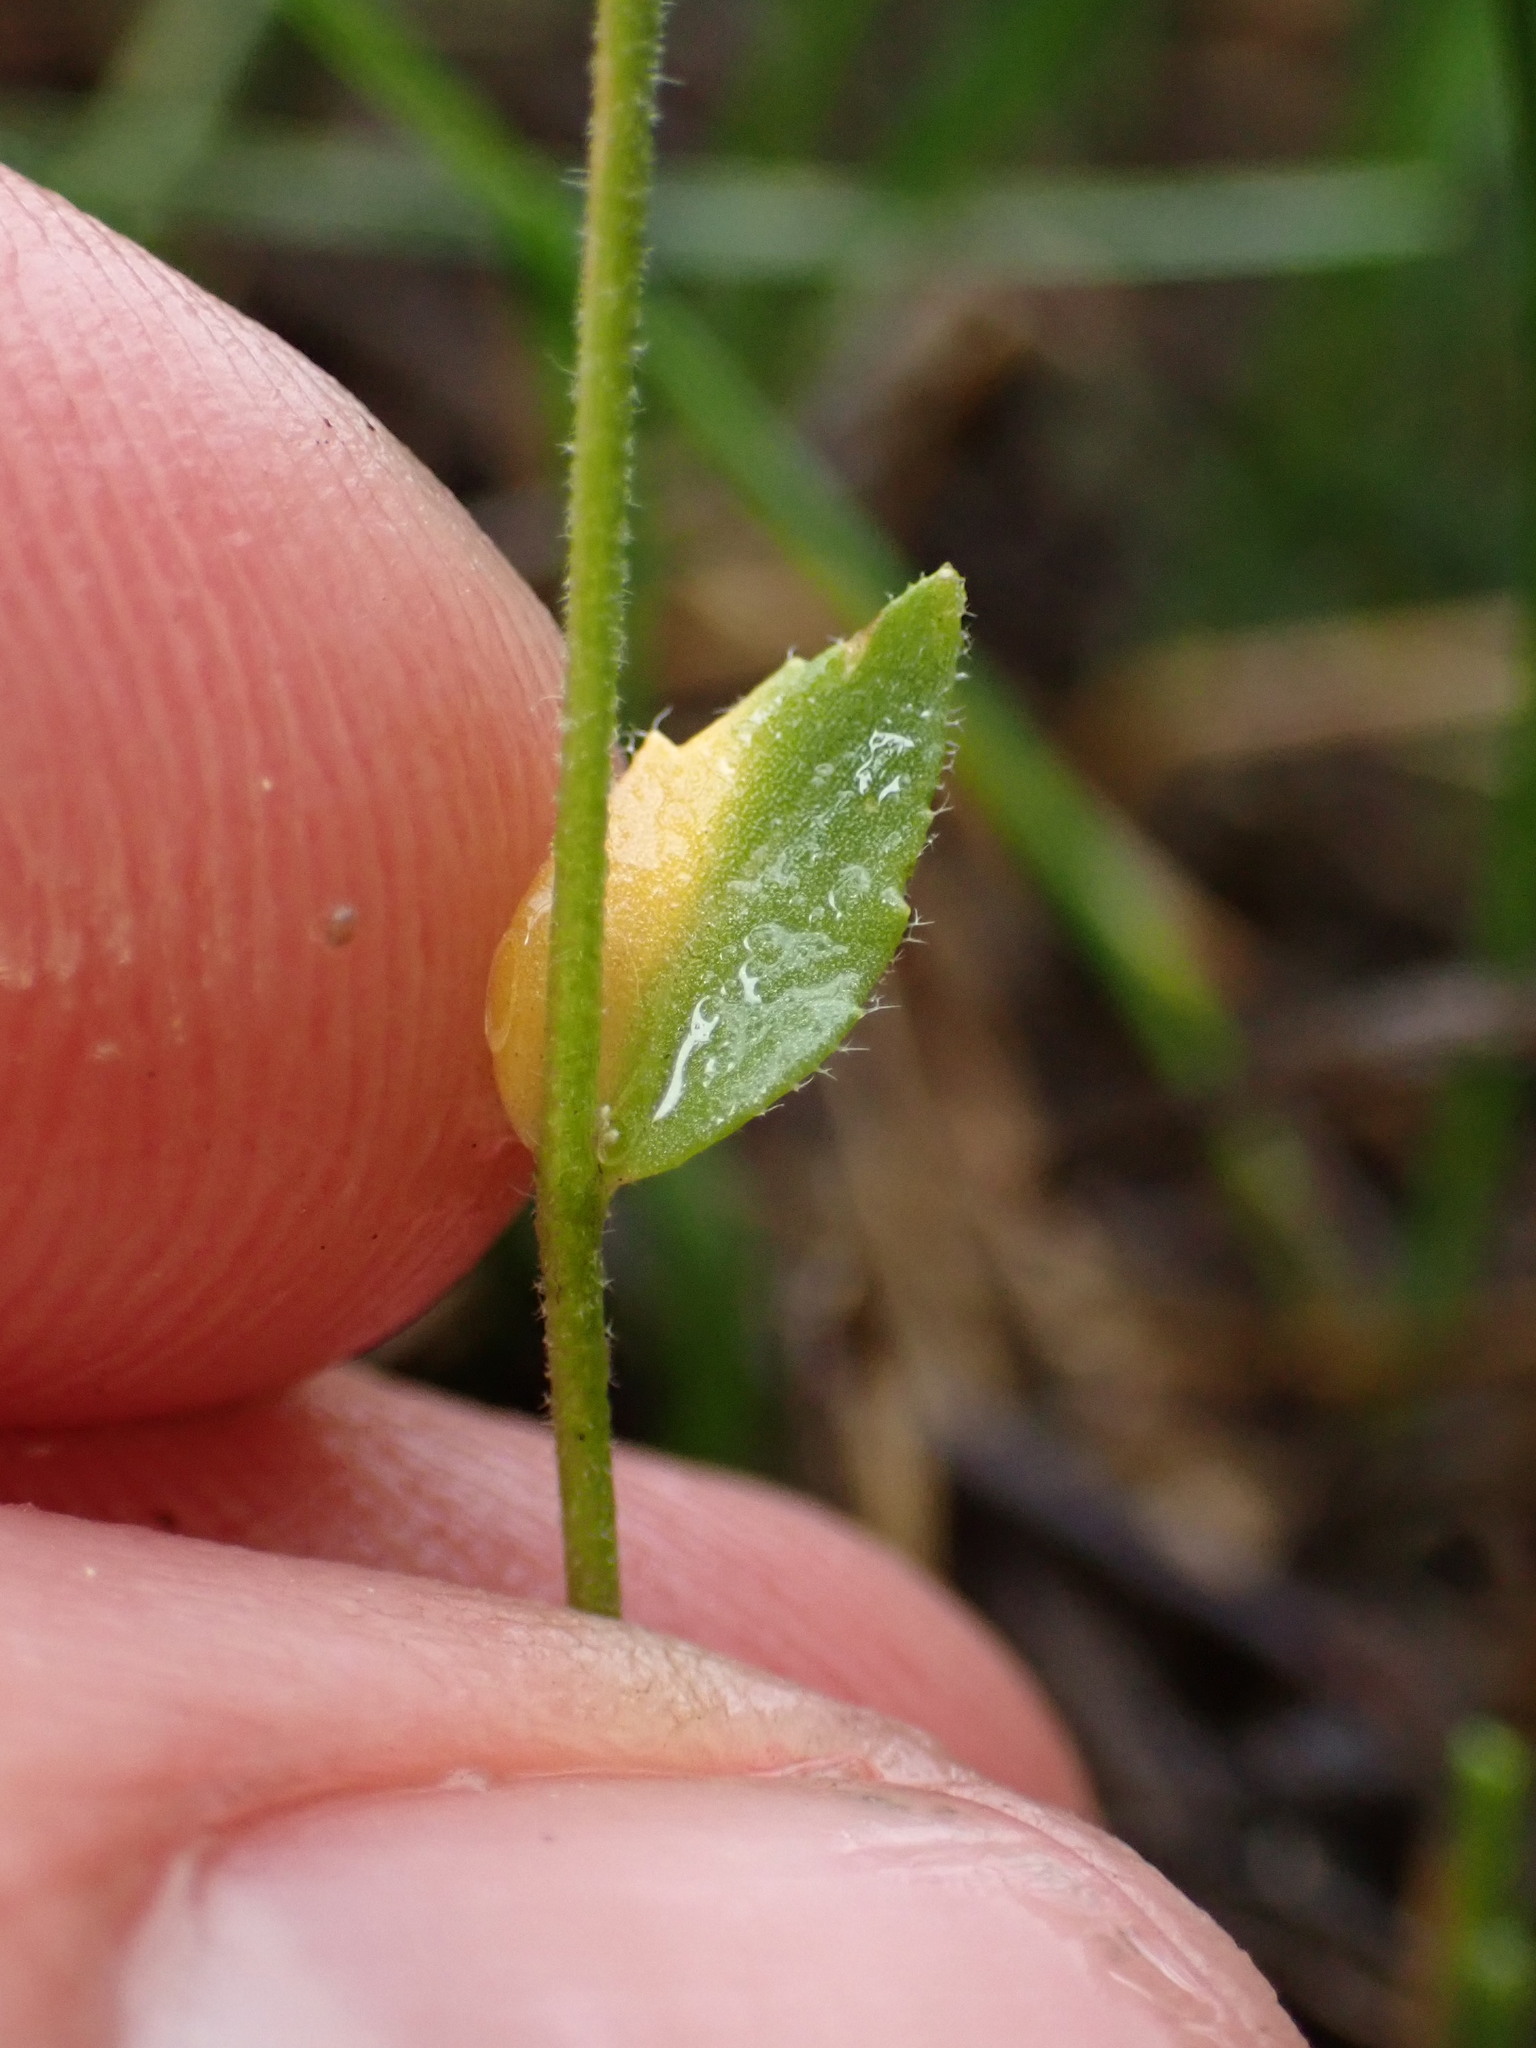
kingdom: Plantae
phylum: Tracheophyta
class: Magnoliopsida
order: Brassicales
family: Brassicaceae
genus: Draba
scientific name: Draba praealta
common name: Tall draba
